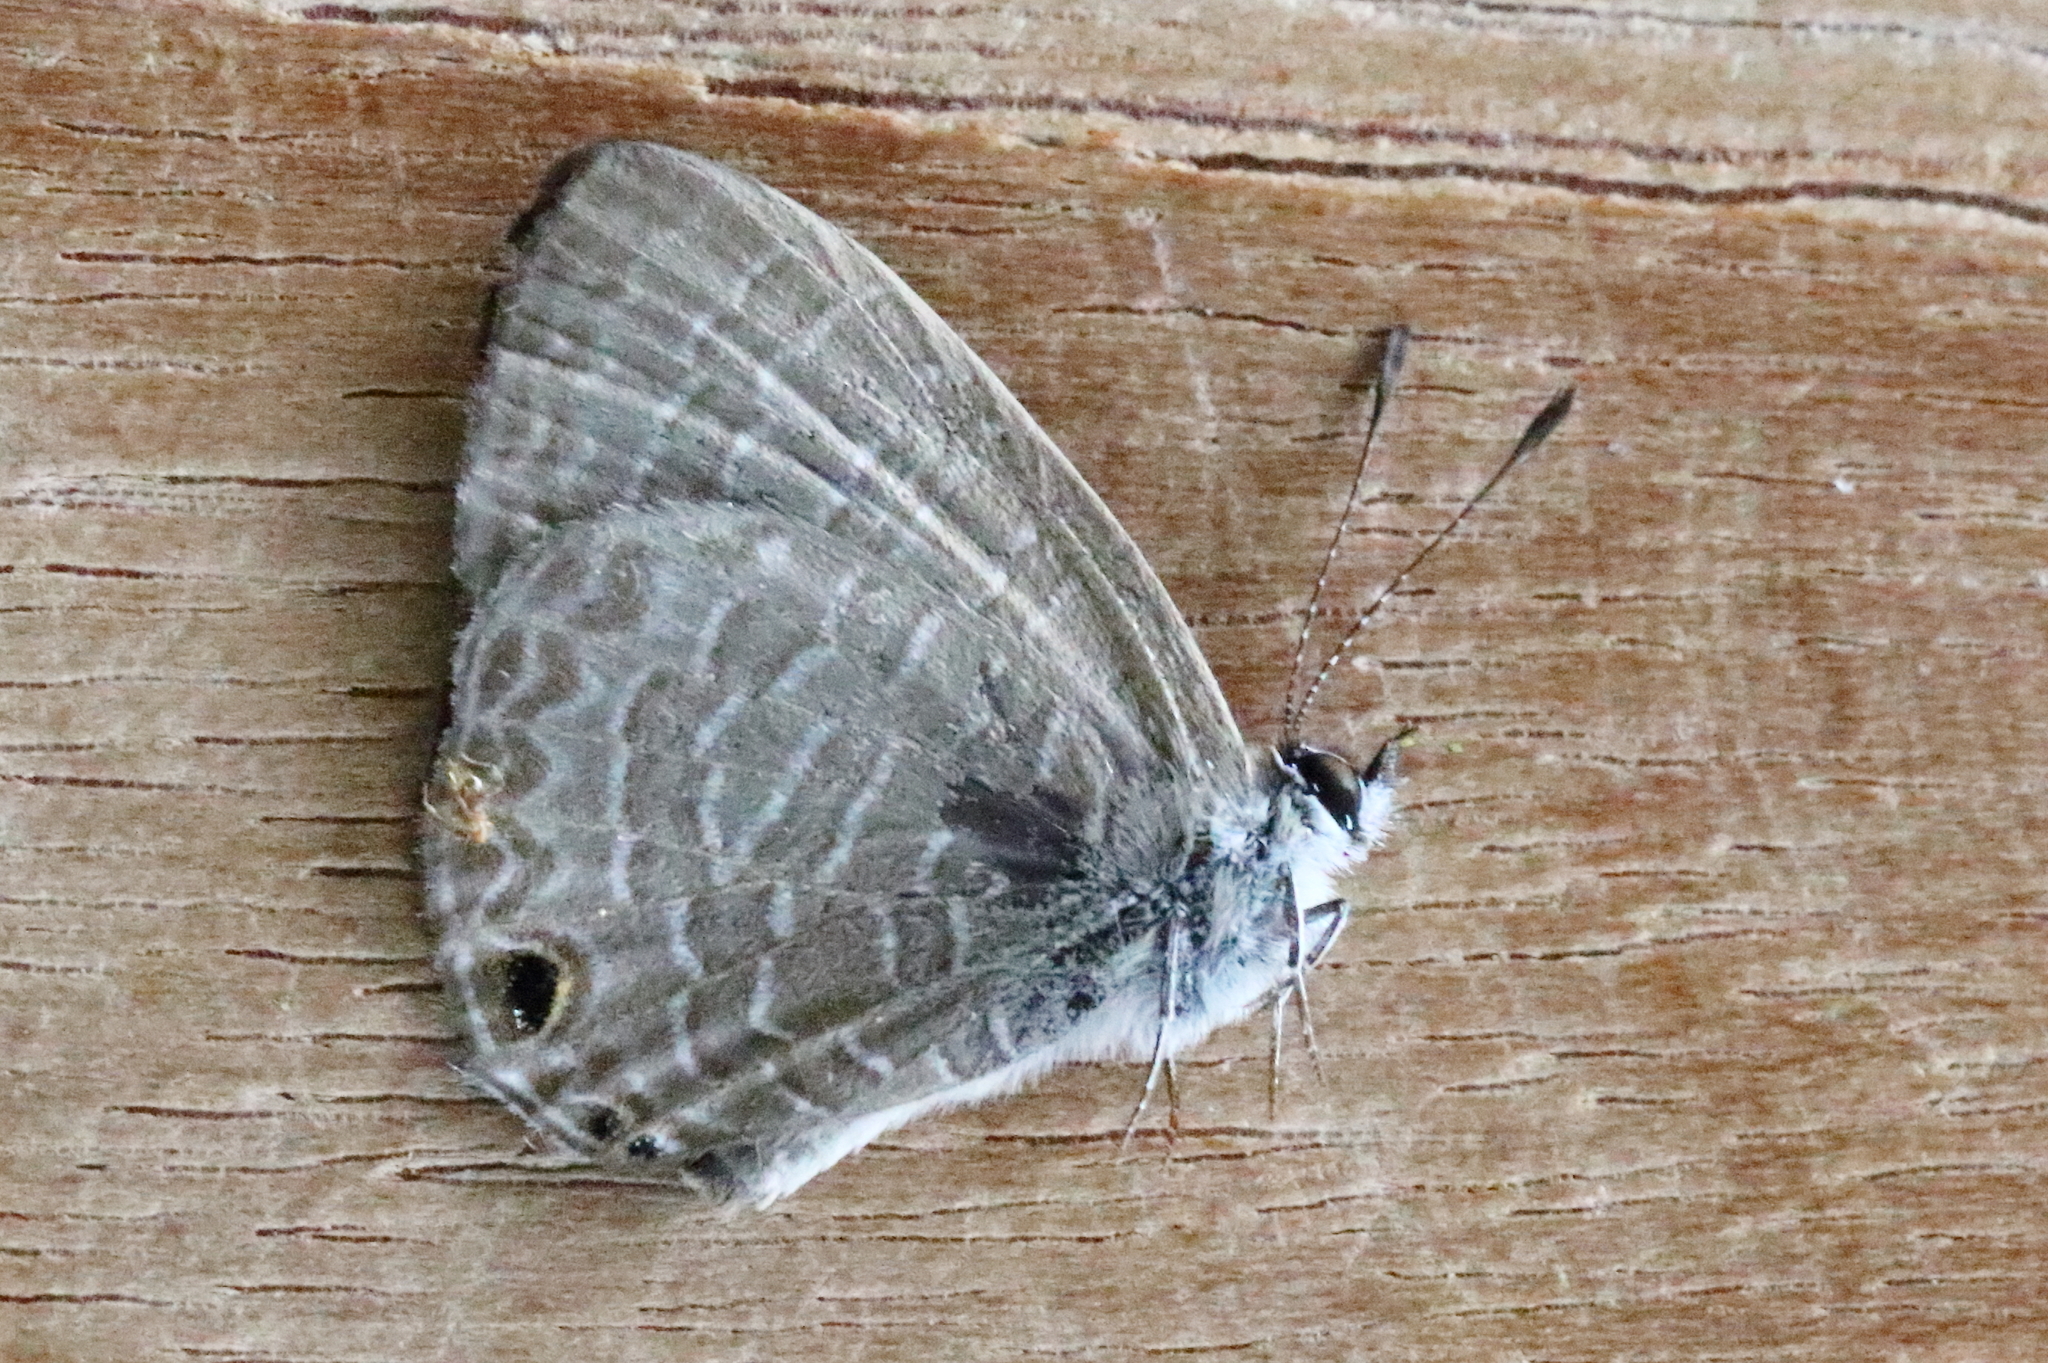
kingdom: Animalia
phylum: Arthropoda
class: Insecta
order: Lepidoptera
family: Lycaenidae
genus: Nacaduba
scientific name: Nacaduba berenice
